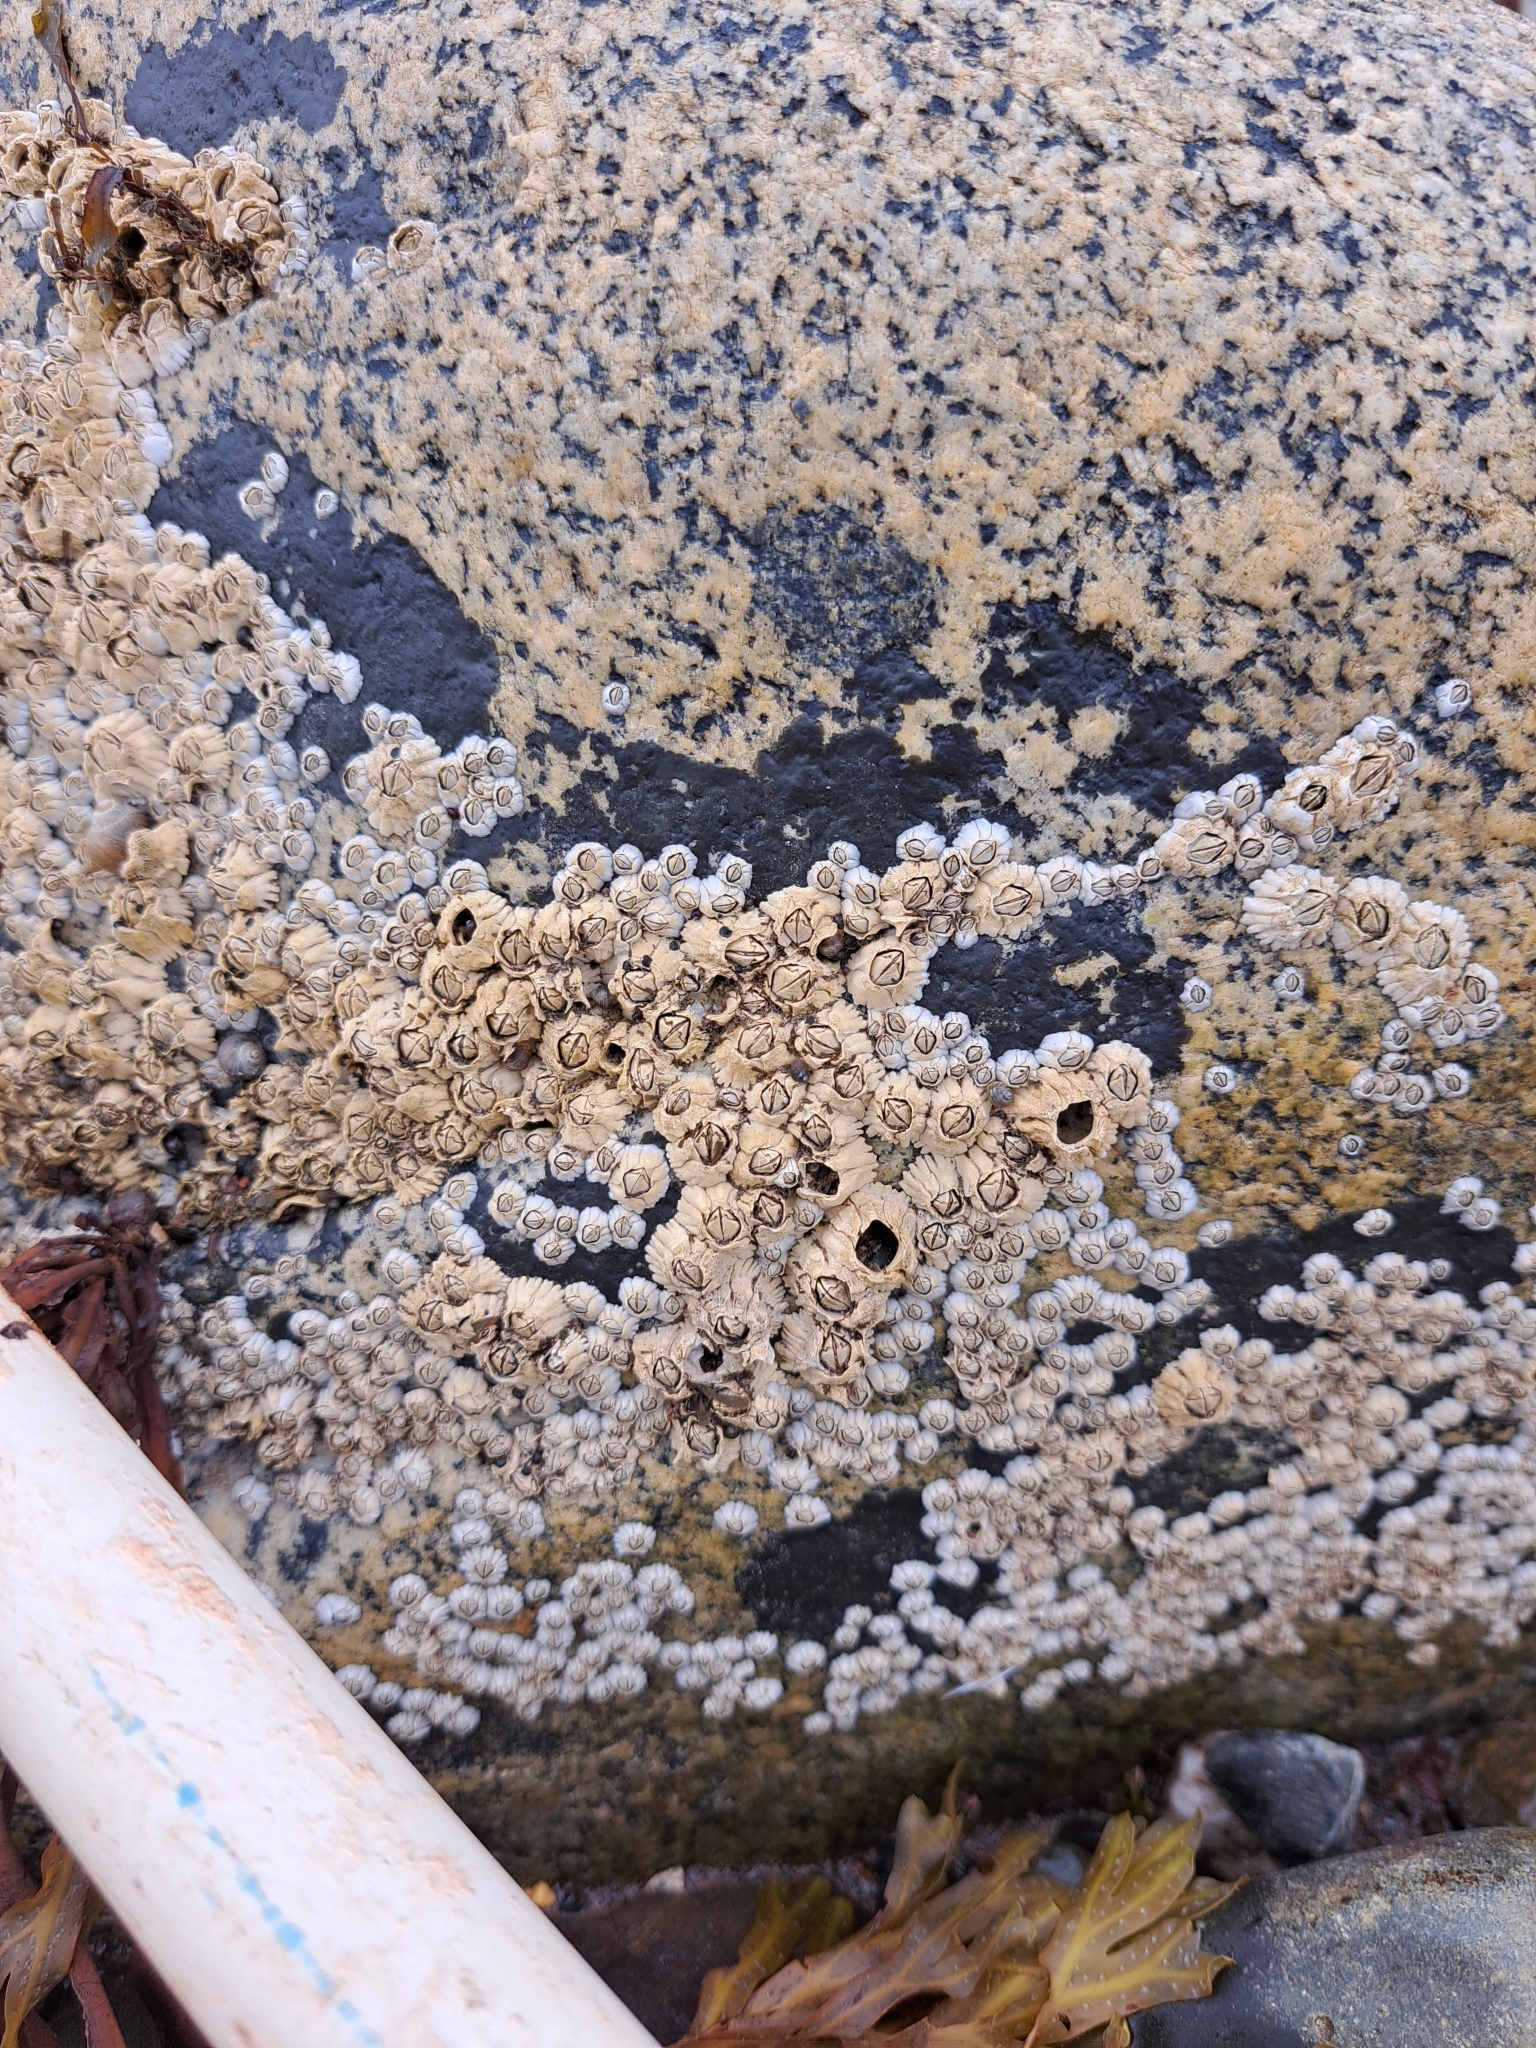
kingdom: Animalia
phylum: Arthropoda
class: Maxillopoda
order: Sessilia
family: Archaeobalanidae
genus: Semibalanus
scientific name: Semibalanus balanoides
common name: Acorn barnacle
